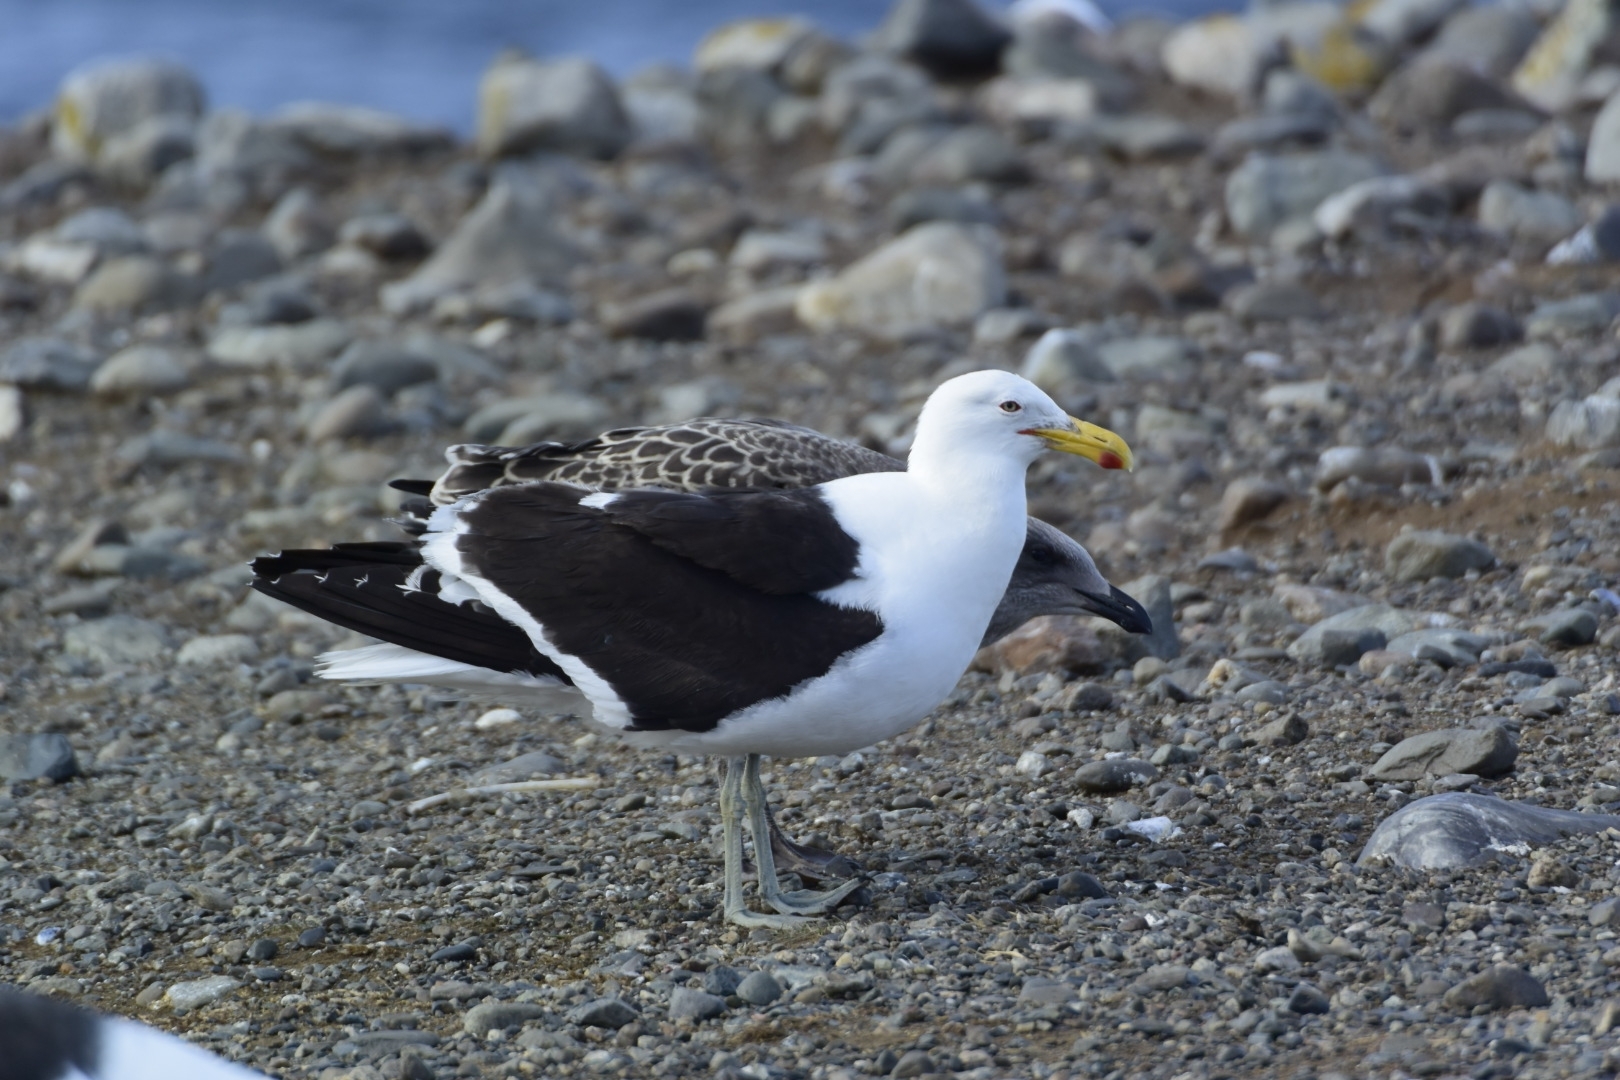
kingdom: Animalia
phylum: Chordata
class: Aves
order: Charadriiformes
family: Laridae
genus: Larus
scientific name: Larus dominicanus
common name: Kelp gull
